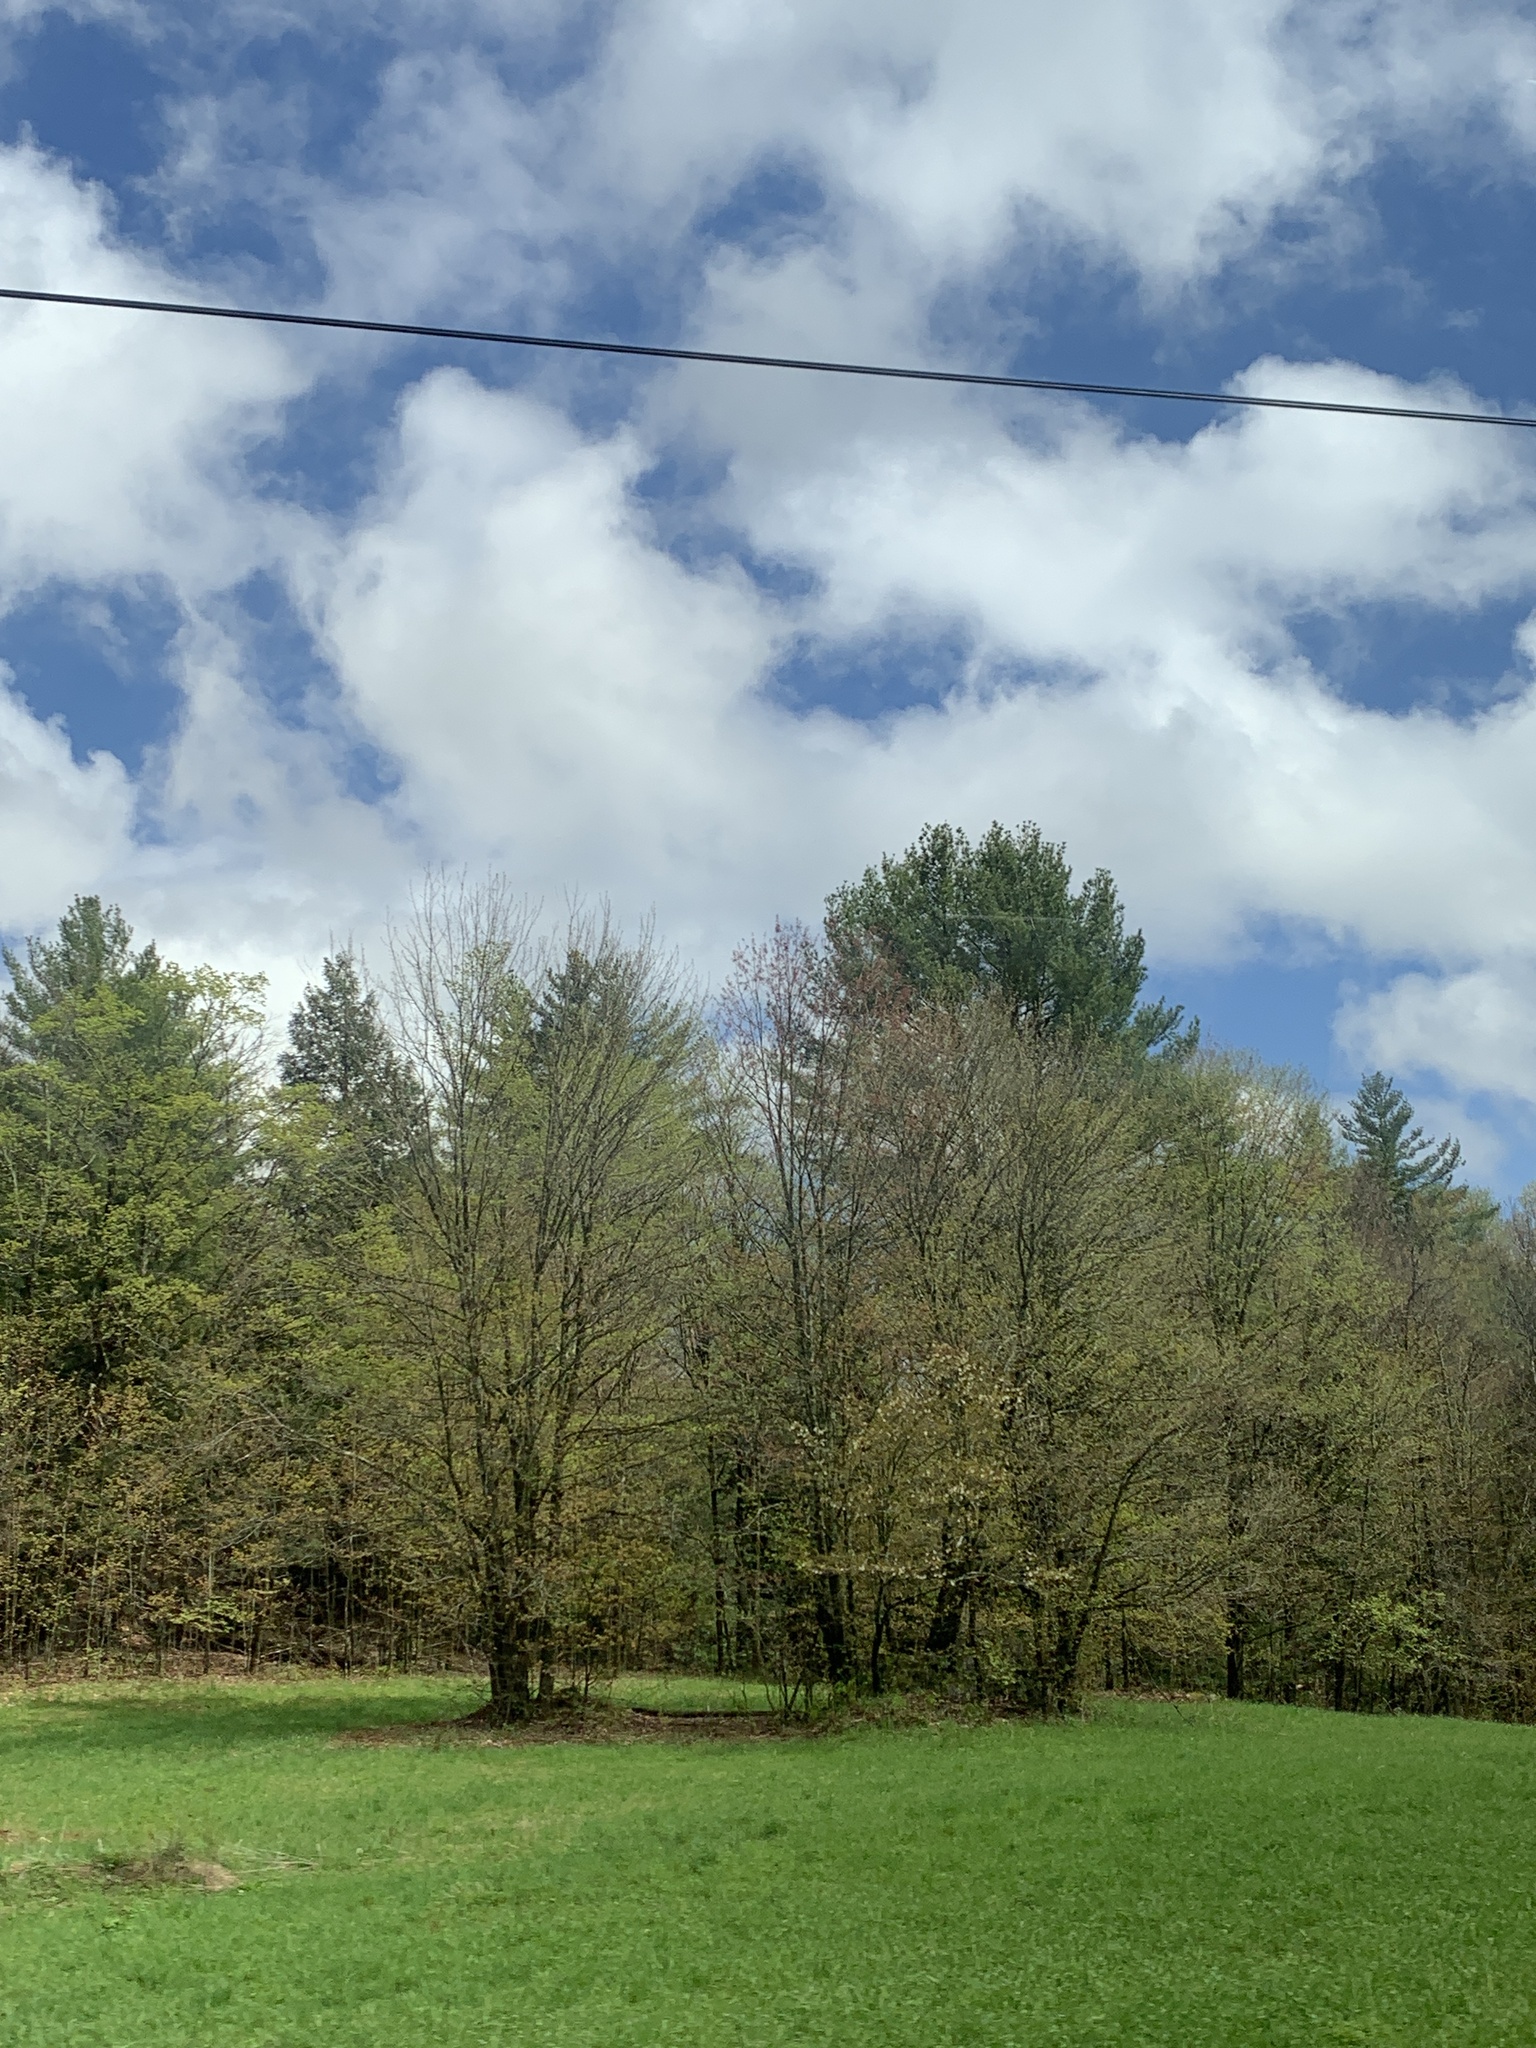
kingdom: Plantae
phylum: Tracheophyta
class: Pinopsida
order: Pinales
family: Pinaceae
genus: Pinus
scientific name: Pinus strobus
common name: Weymouth pine
